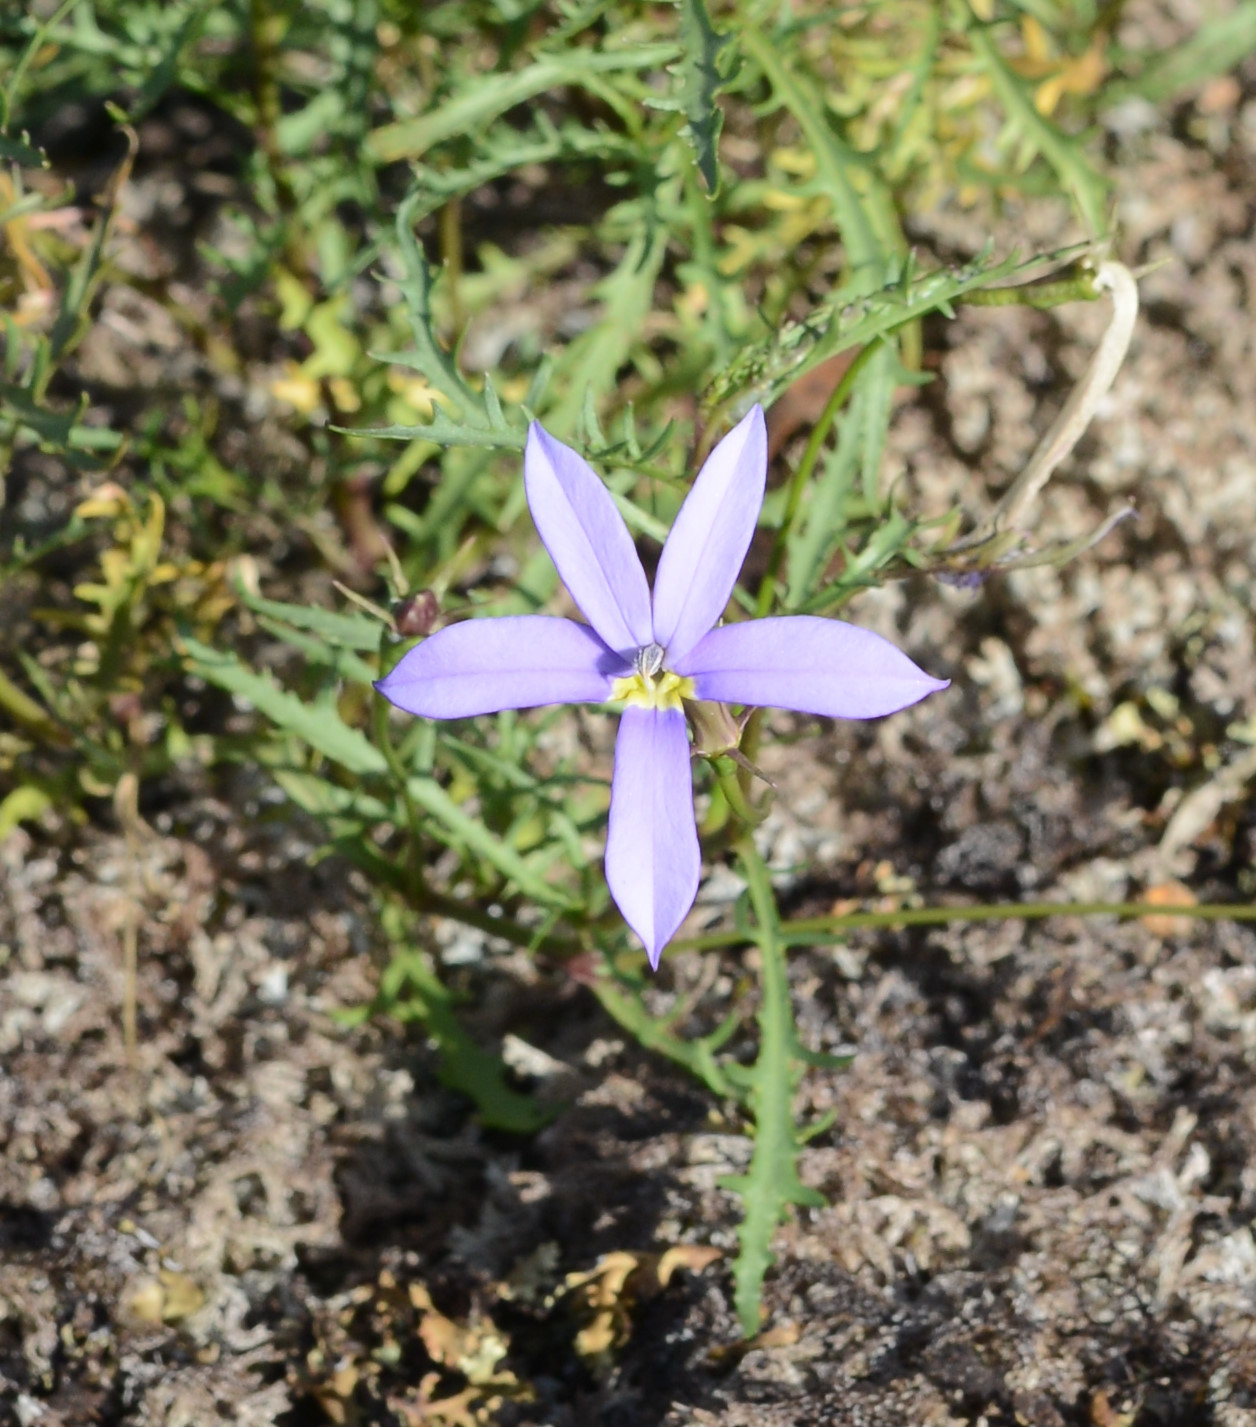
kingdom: Plantae
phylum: Tracheophyta
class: Magnoliopsida
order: Asterales
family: Campanulaceae
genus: Lithotoma
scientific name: Lithotoma axillaris
